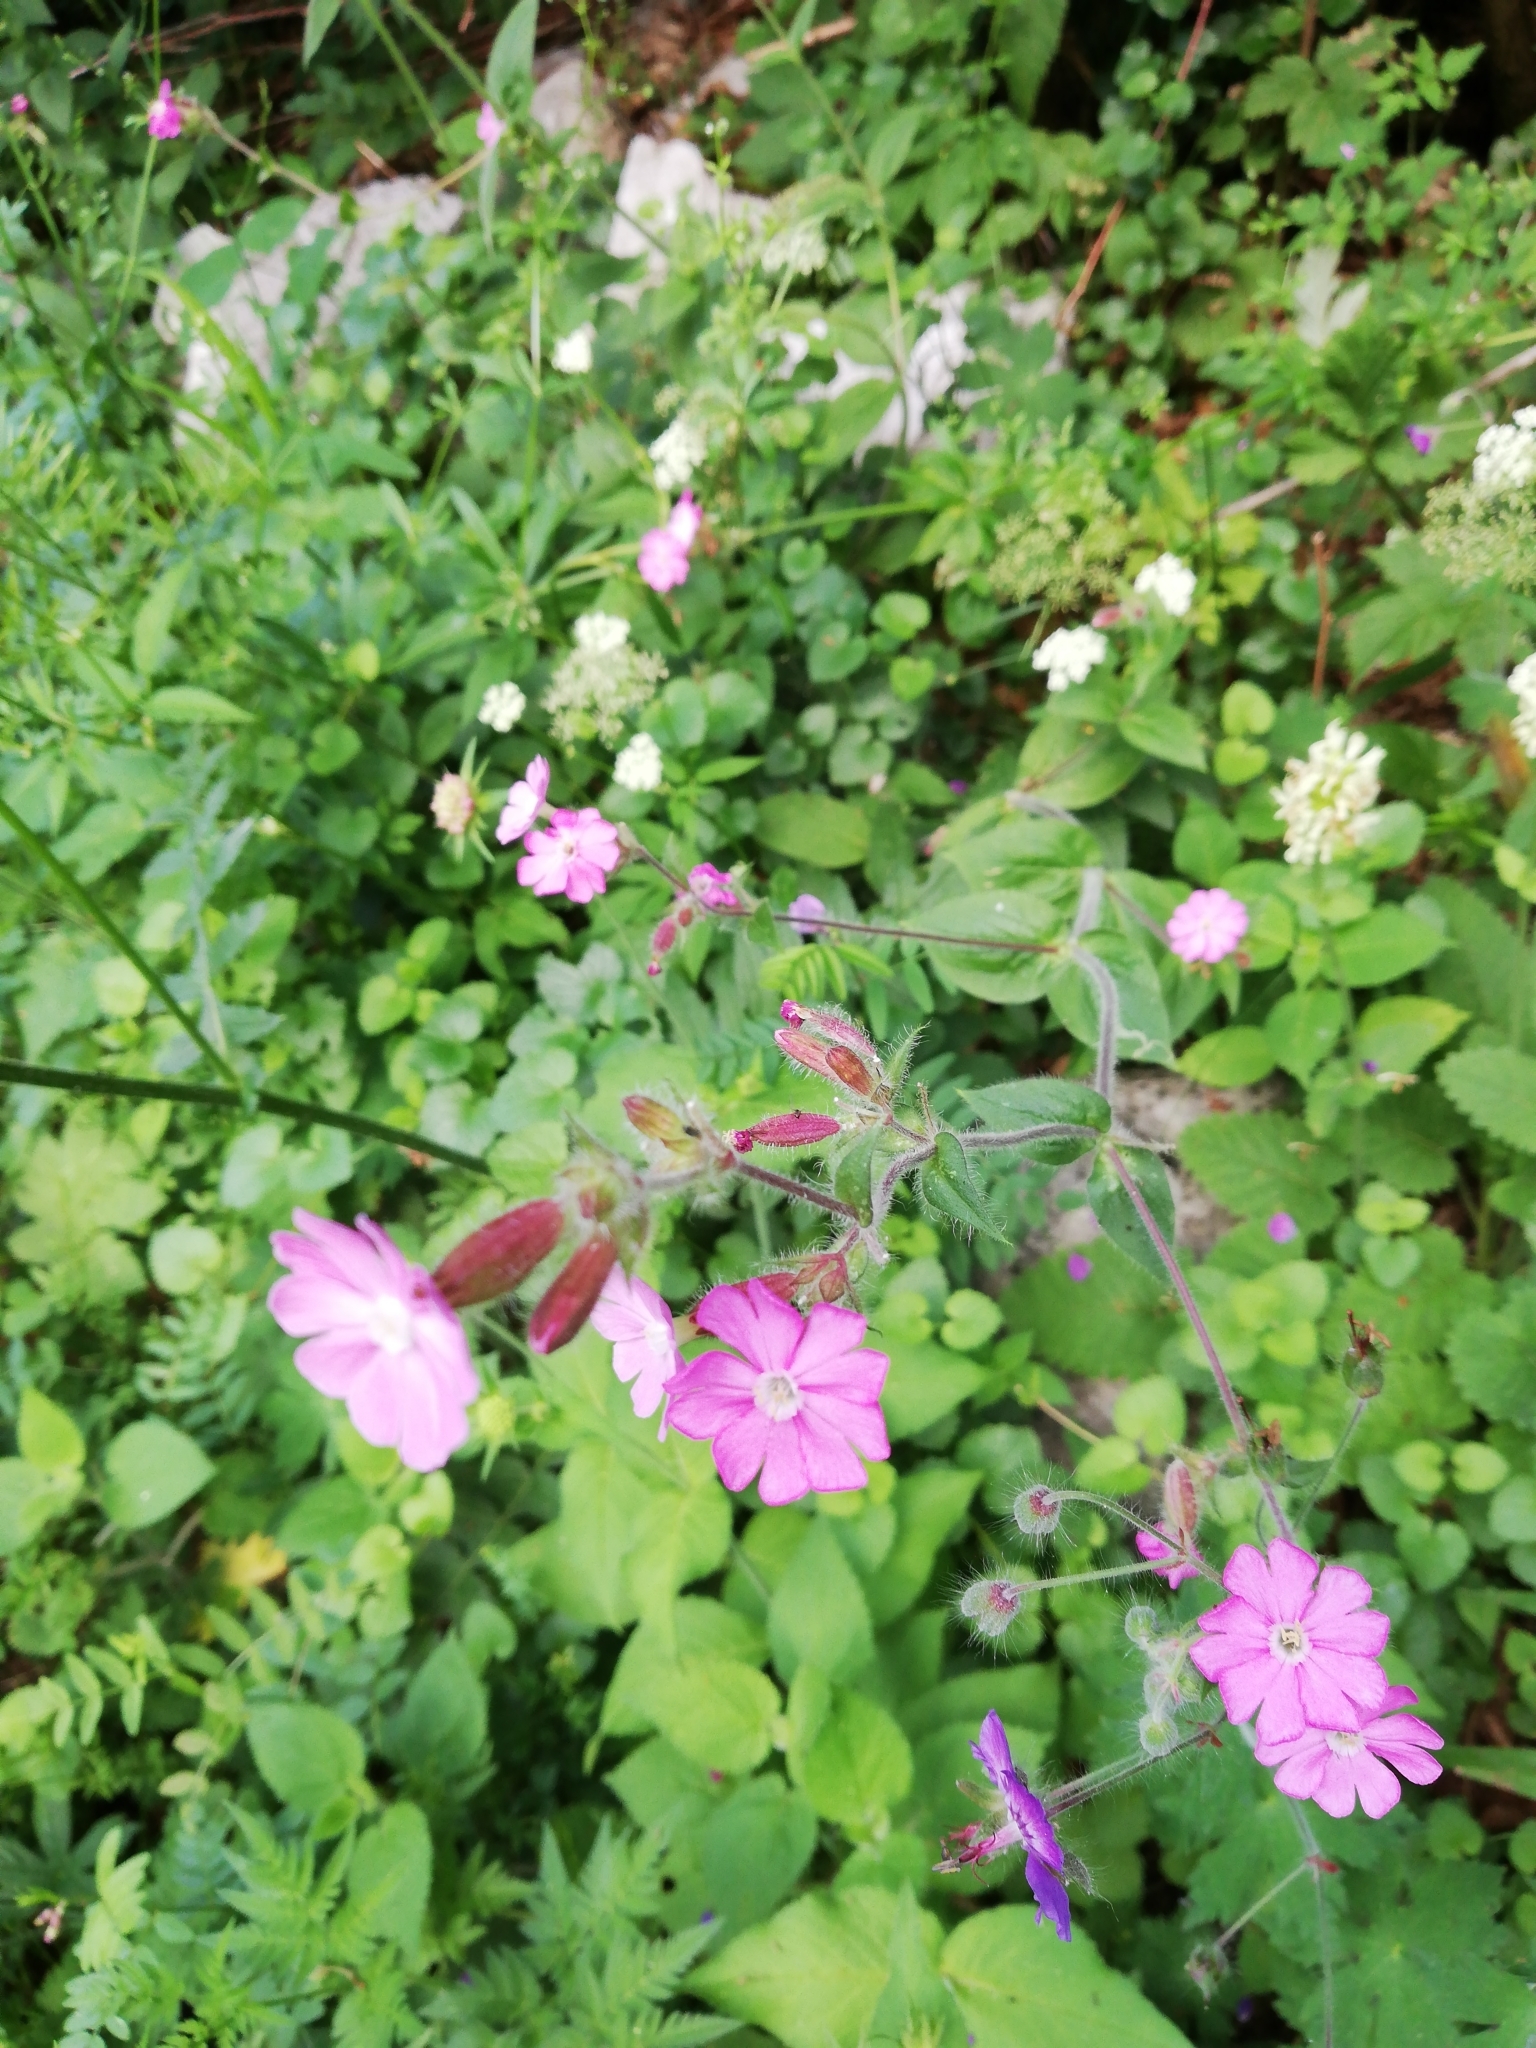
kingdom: Plantae
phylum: Tracheophyta
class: Magnoliopsida
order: Caryophyllales
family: Caryophyllaceae
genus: Silene
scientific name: Silene dioica
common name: Red campion
